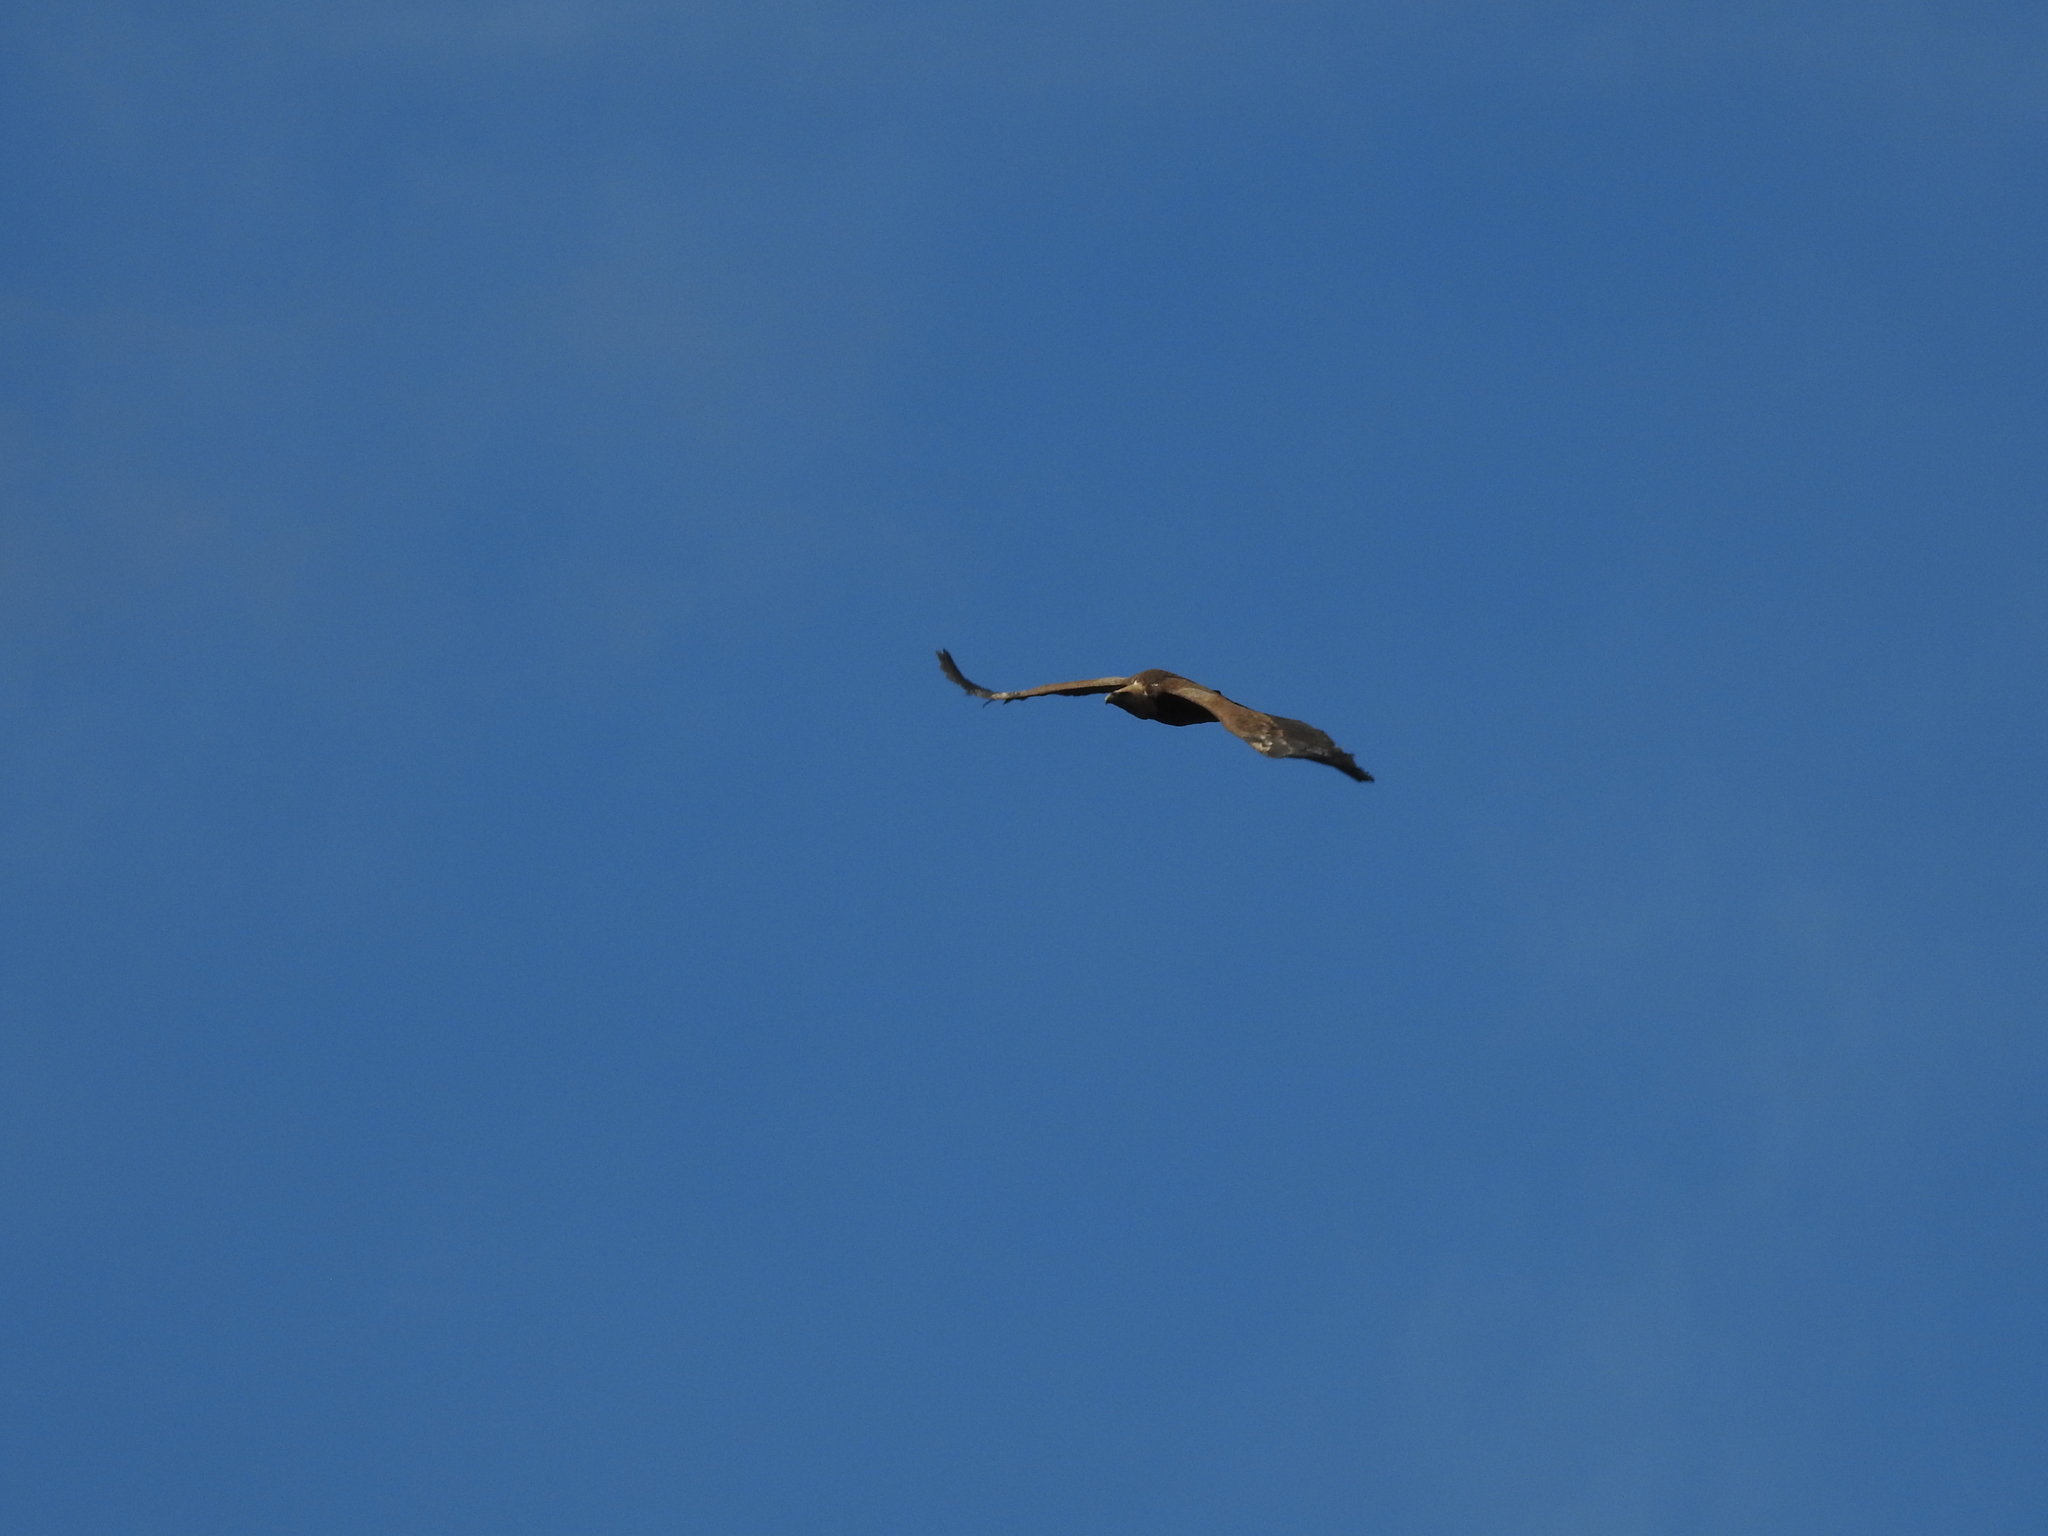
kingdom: Animalia
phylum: Chordata
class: Aves
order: Accipitriformes
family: Accipitridae
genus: Gyps
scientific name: Gyps fulvus
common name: Griffon vulture
